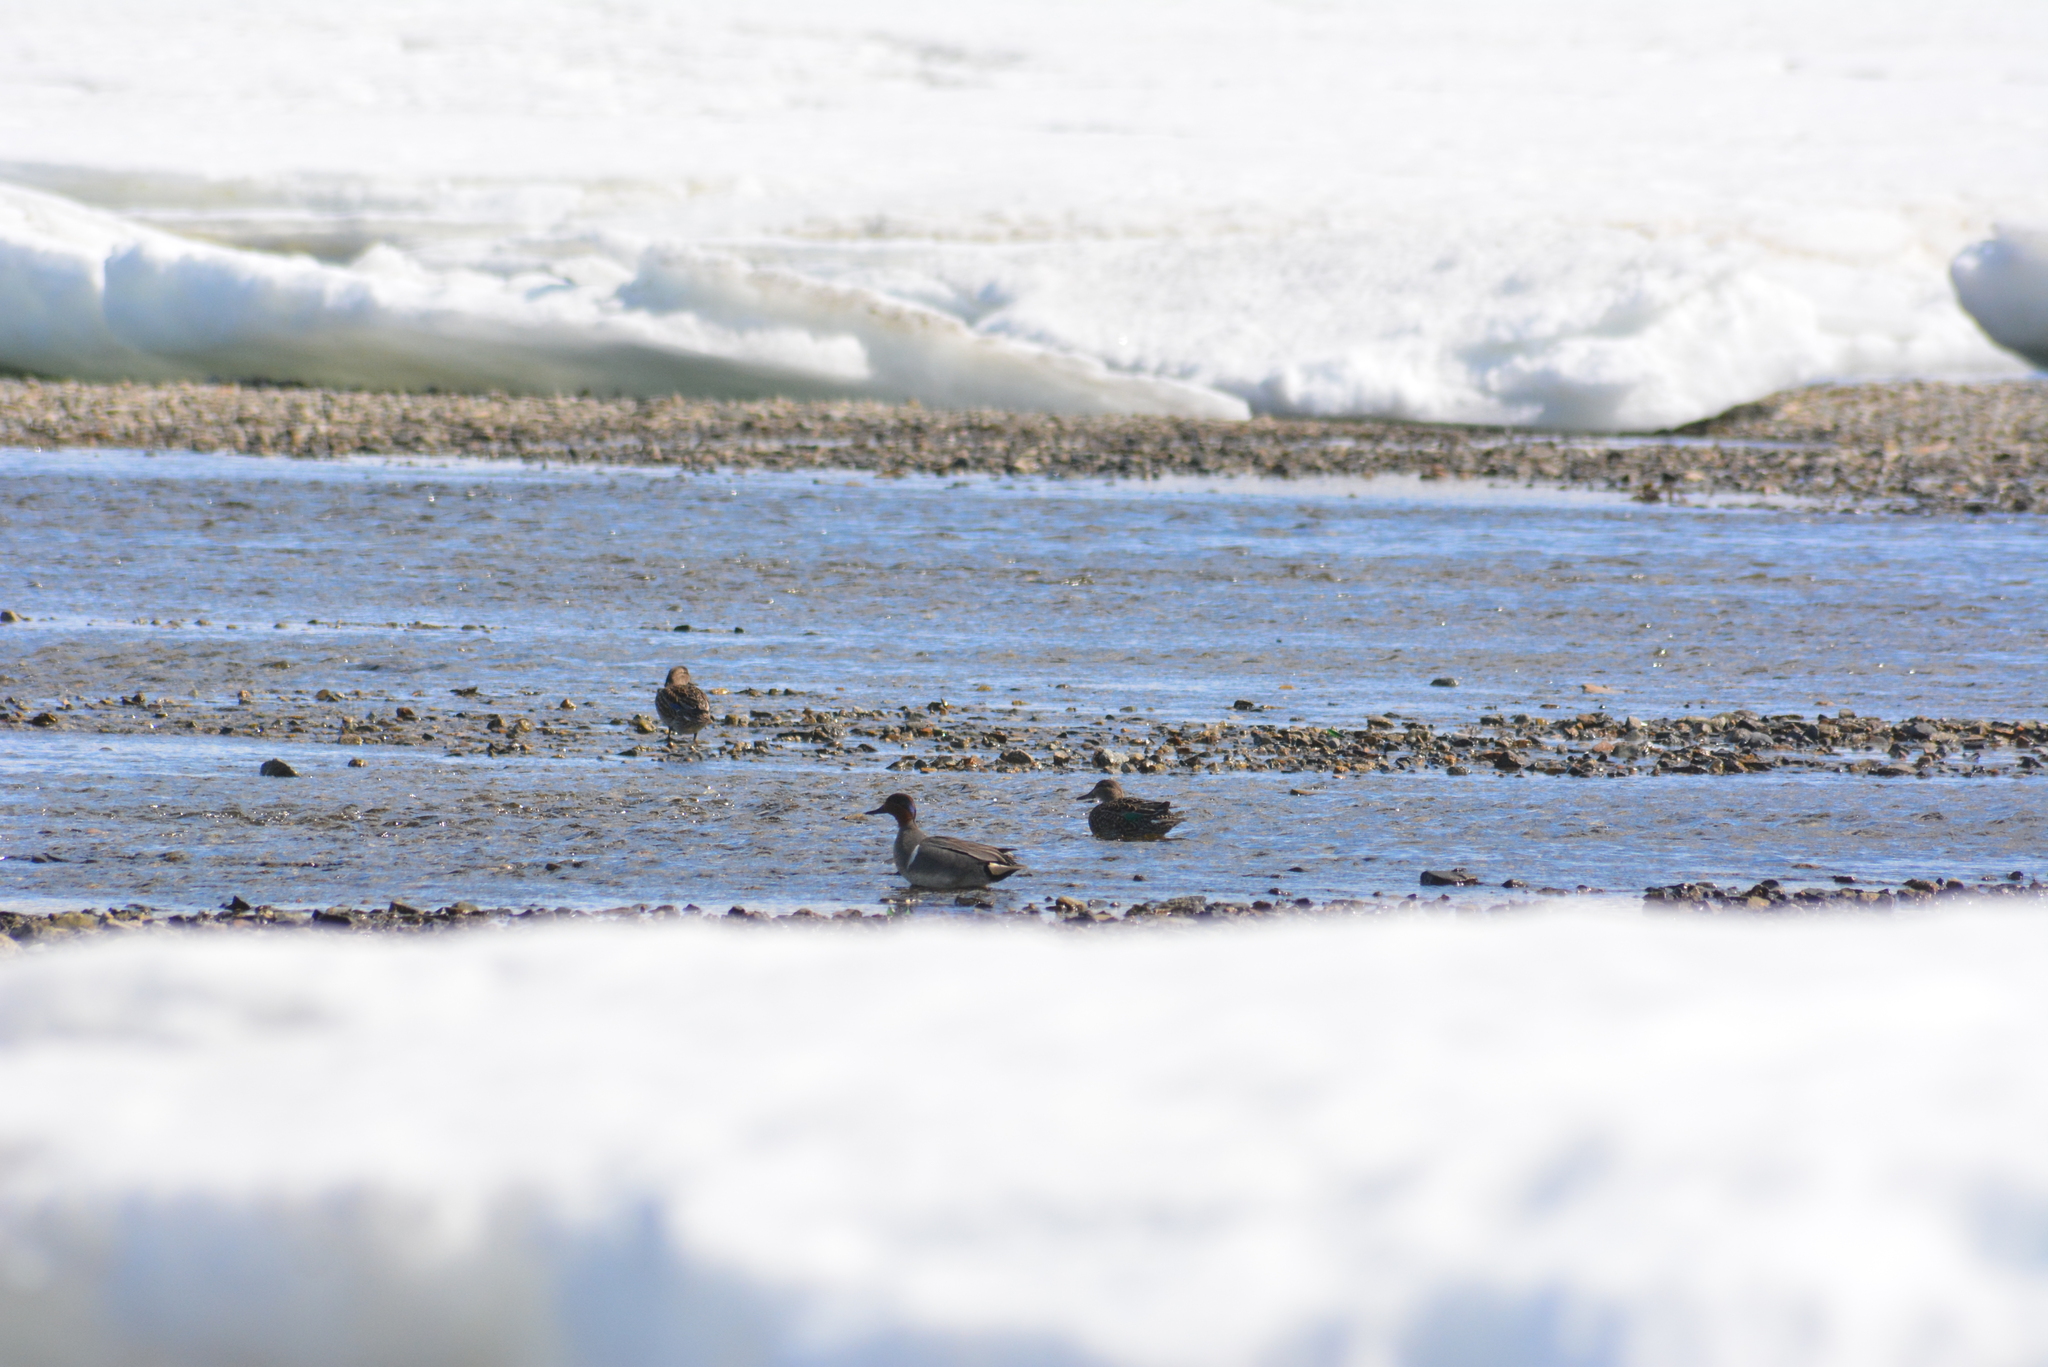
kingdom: Animalia
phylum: Chordata
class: Aves
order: Anseriformes
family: Anatidae
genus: Anas
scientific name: Anas crecca
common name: Eurasian teal
